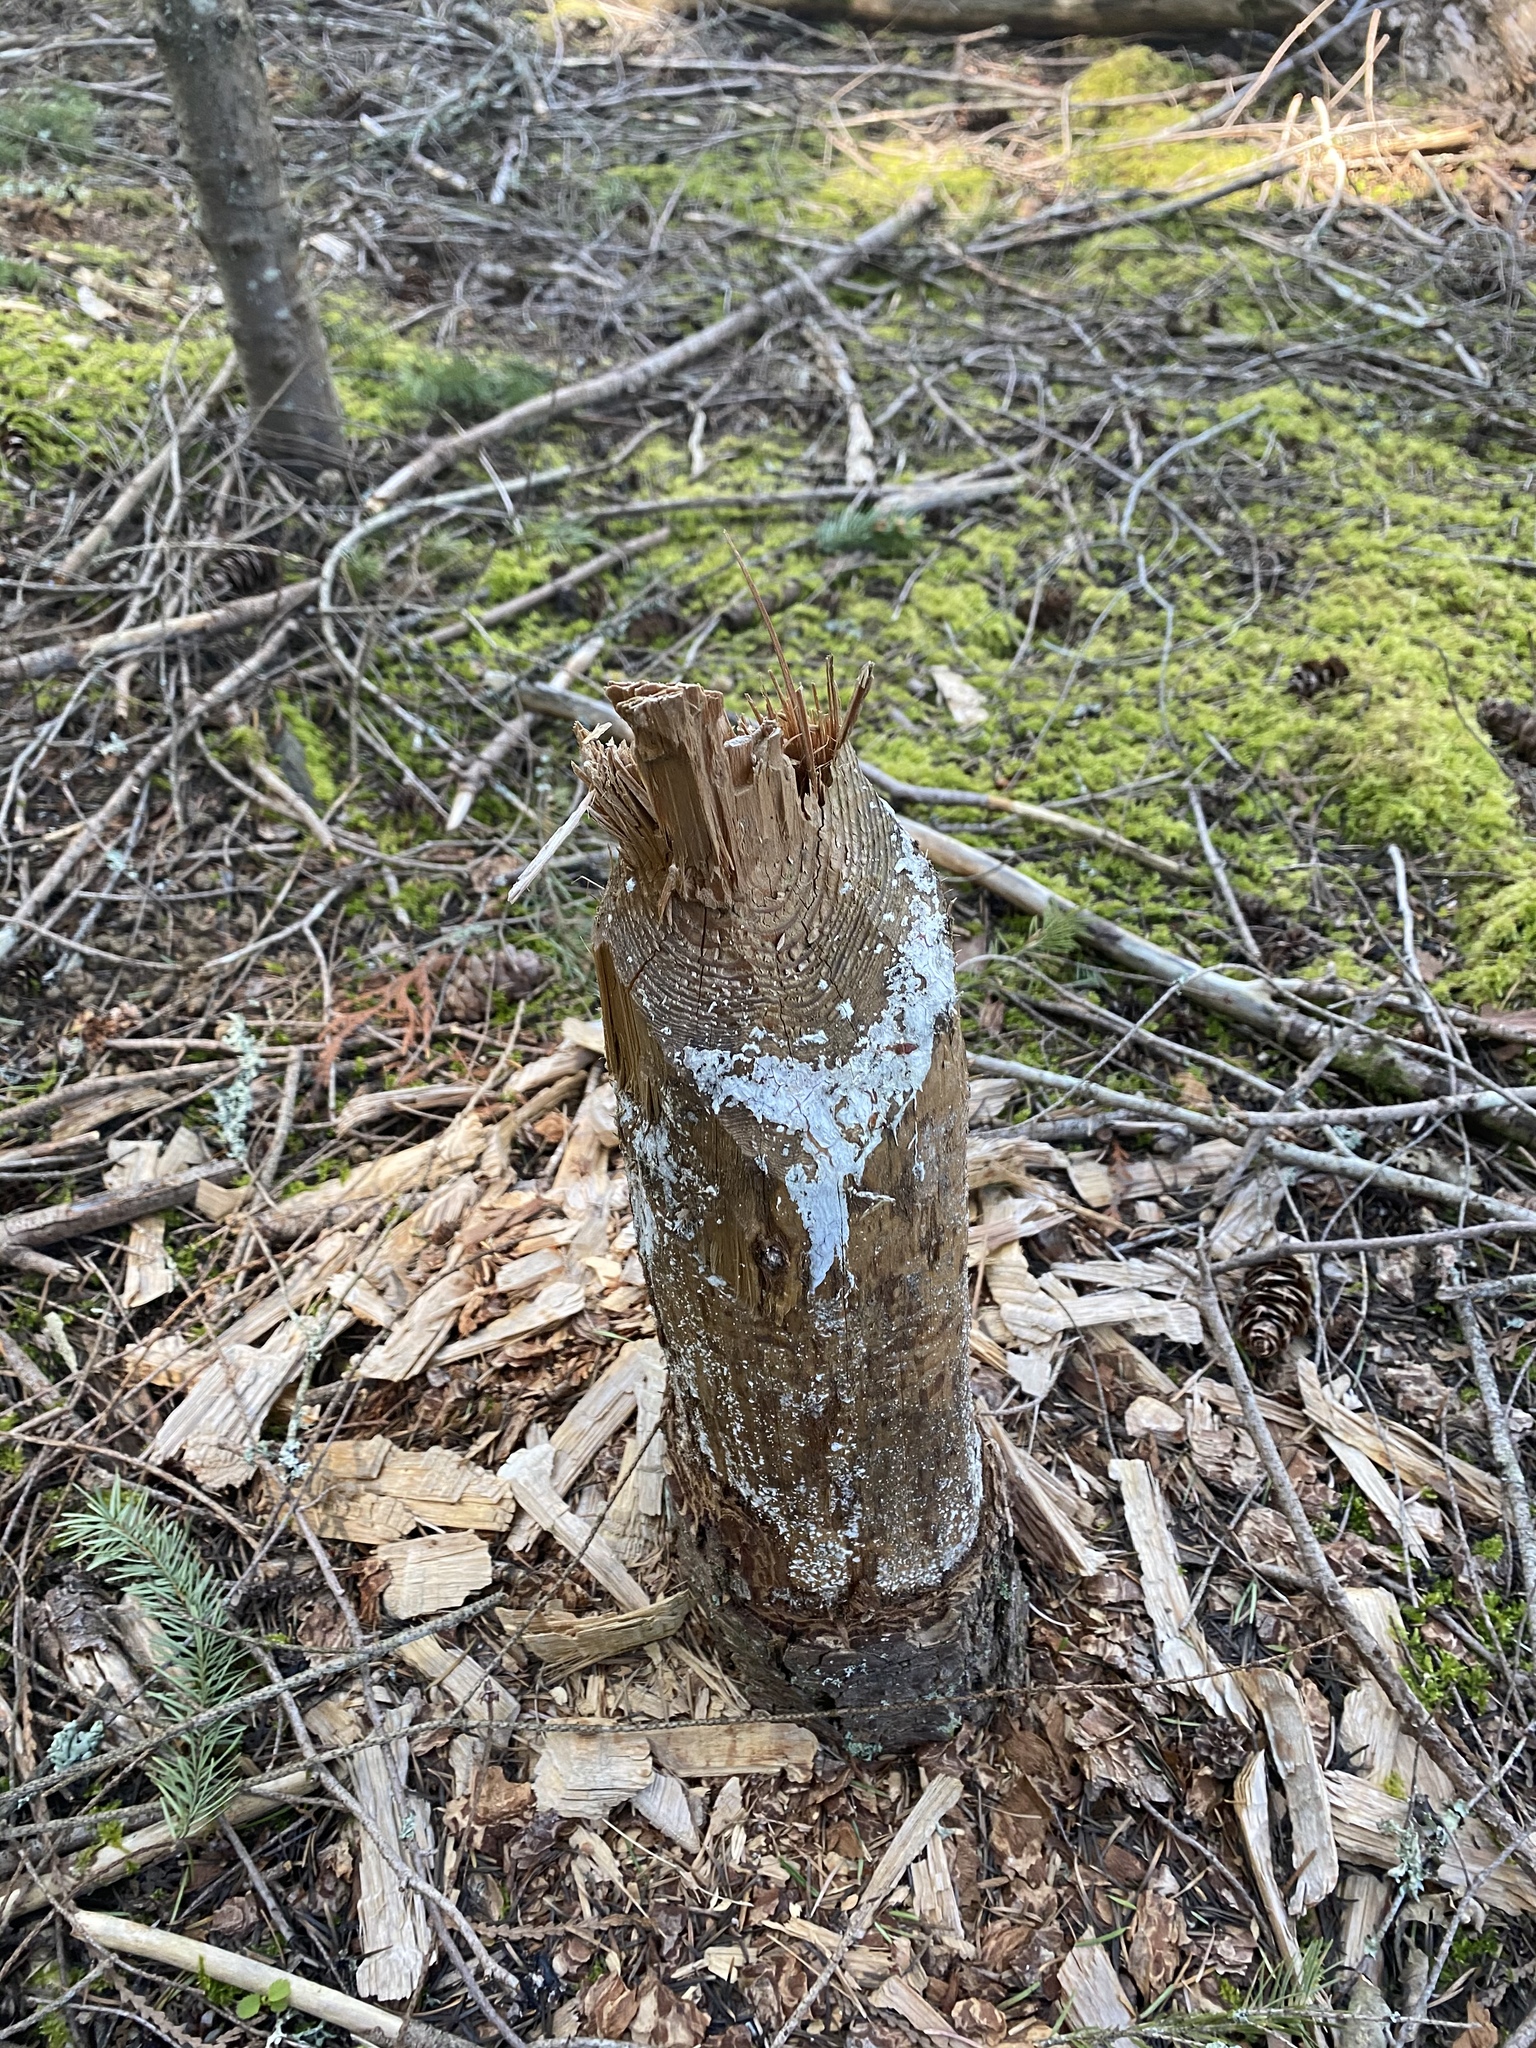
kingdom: Animalia
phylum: Chordata
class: Mammalia
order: Rodentia
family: Castoridae
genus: Castor
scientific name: Castor canadensis
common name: American beaver
